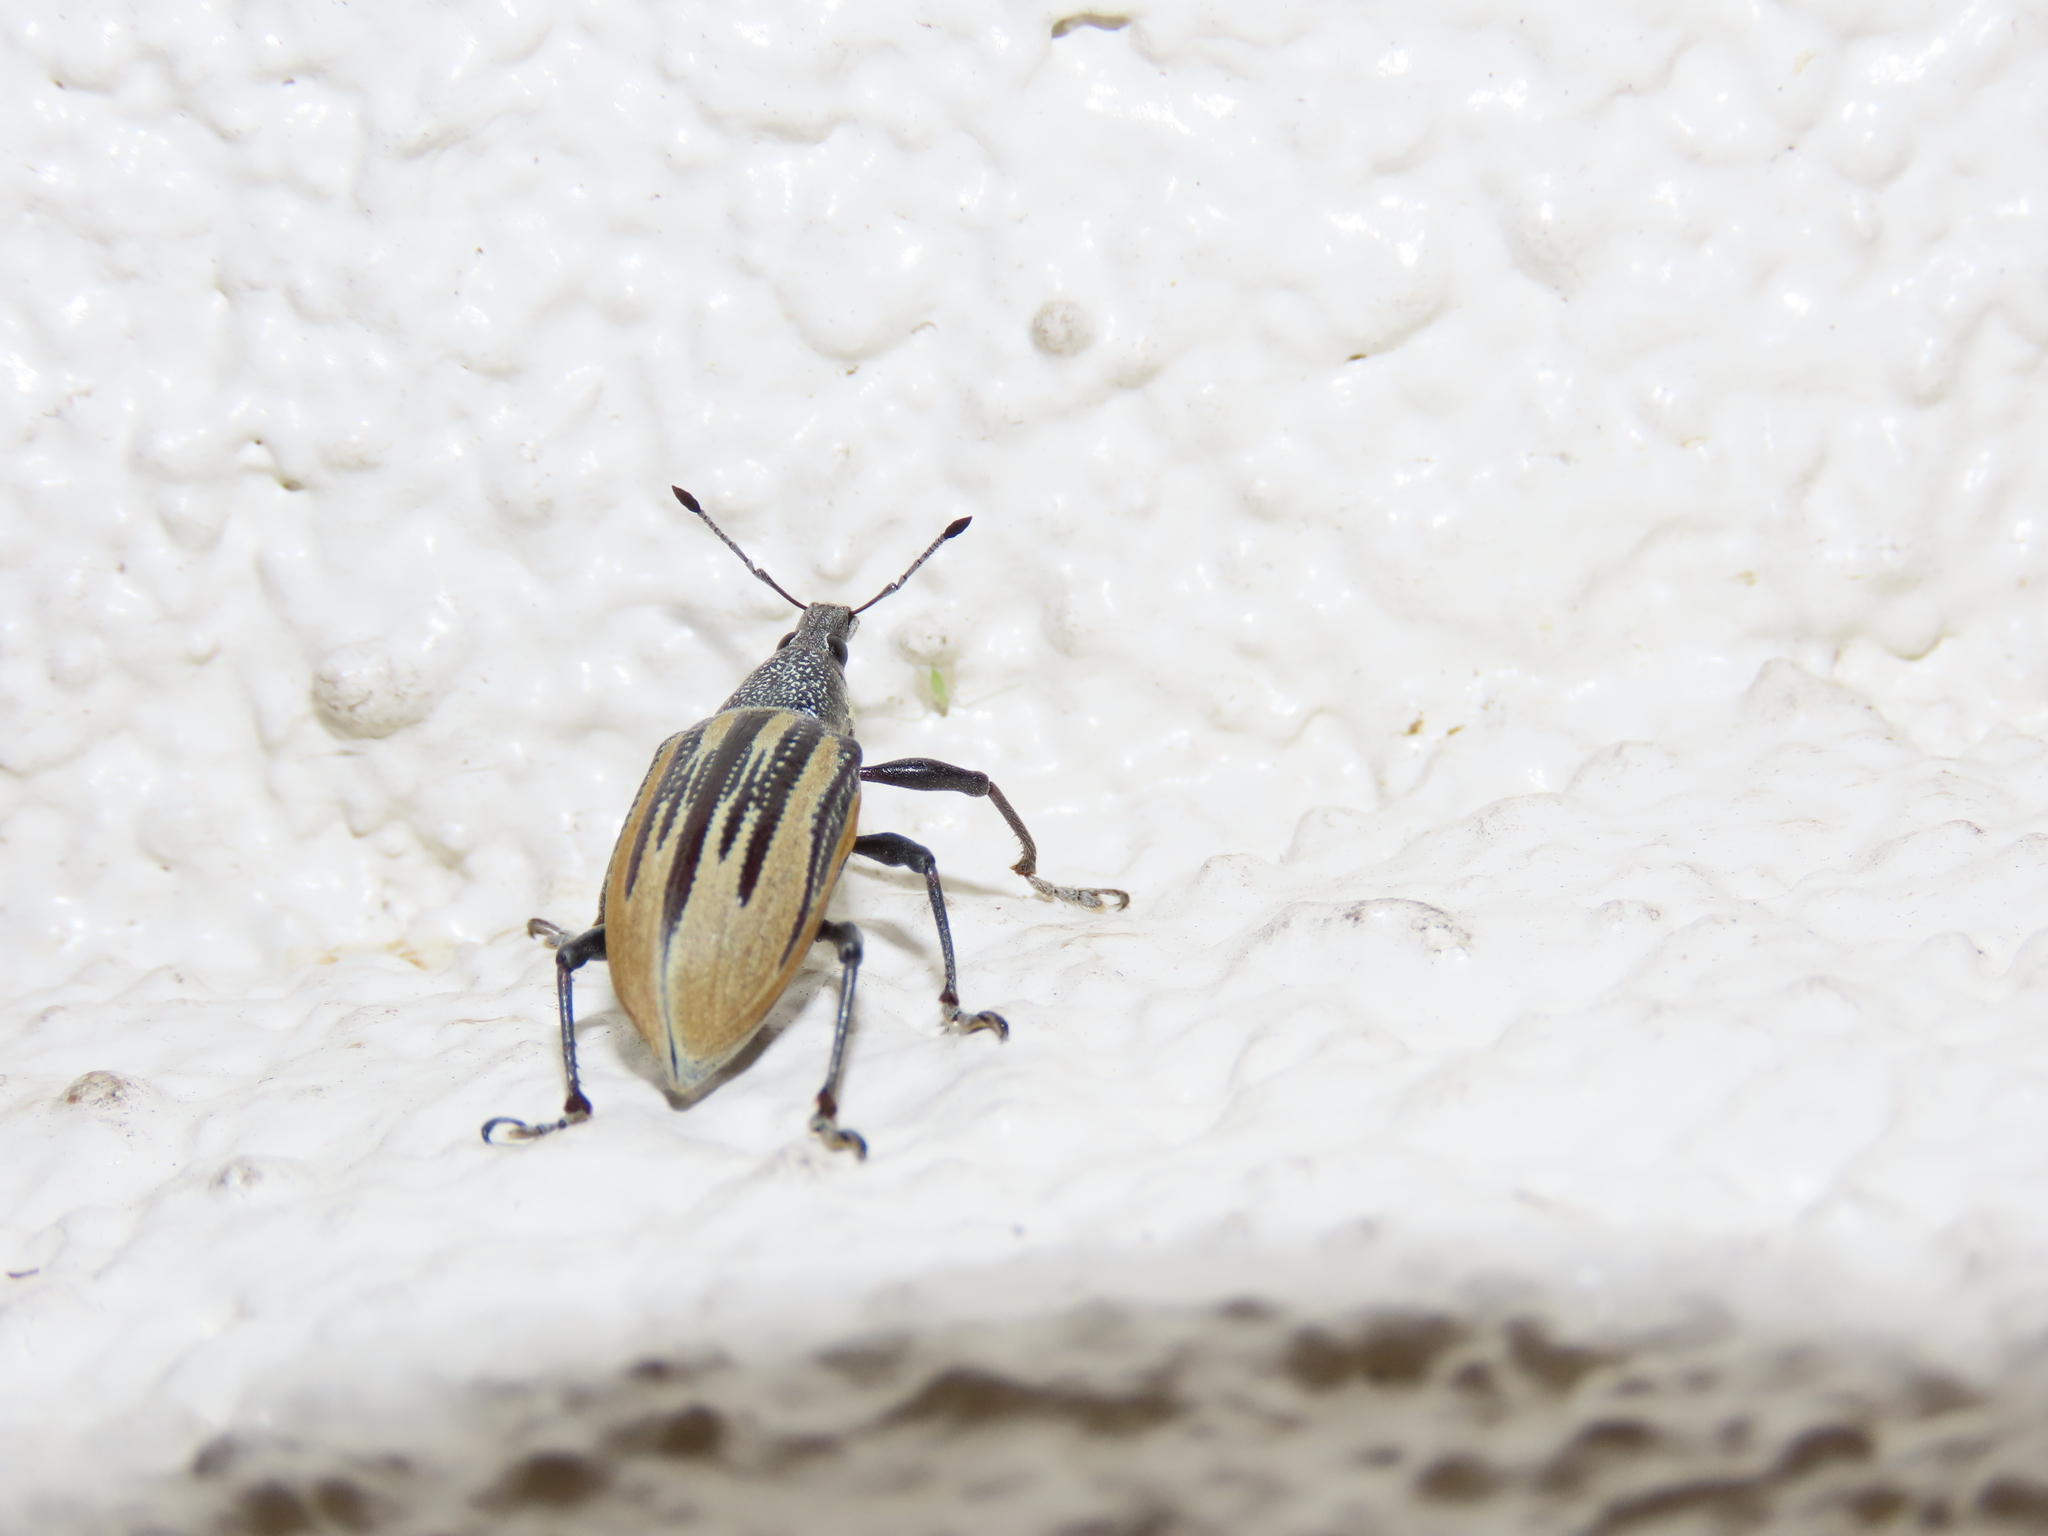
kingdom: Animalia
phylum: Arthropoda
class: Insecta
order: Coleoptera
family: Curculionidae
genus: Diaprepes
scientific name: Diaprepes abbreviatus
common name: Root weevil
